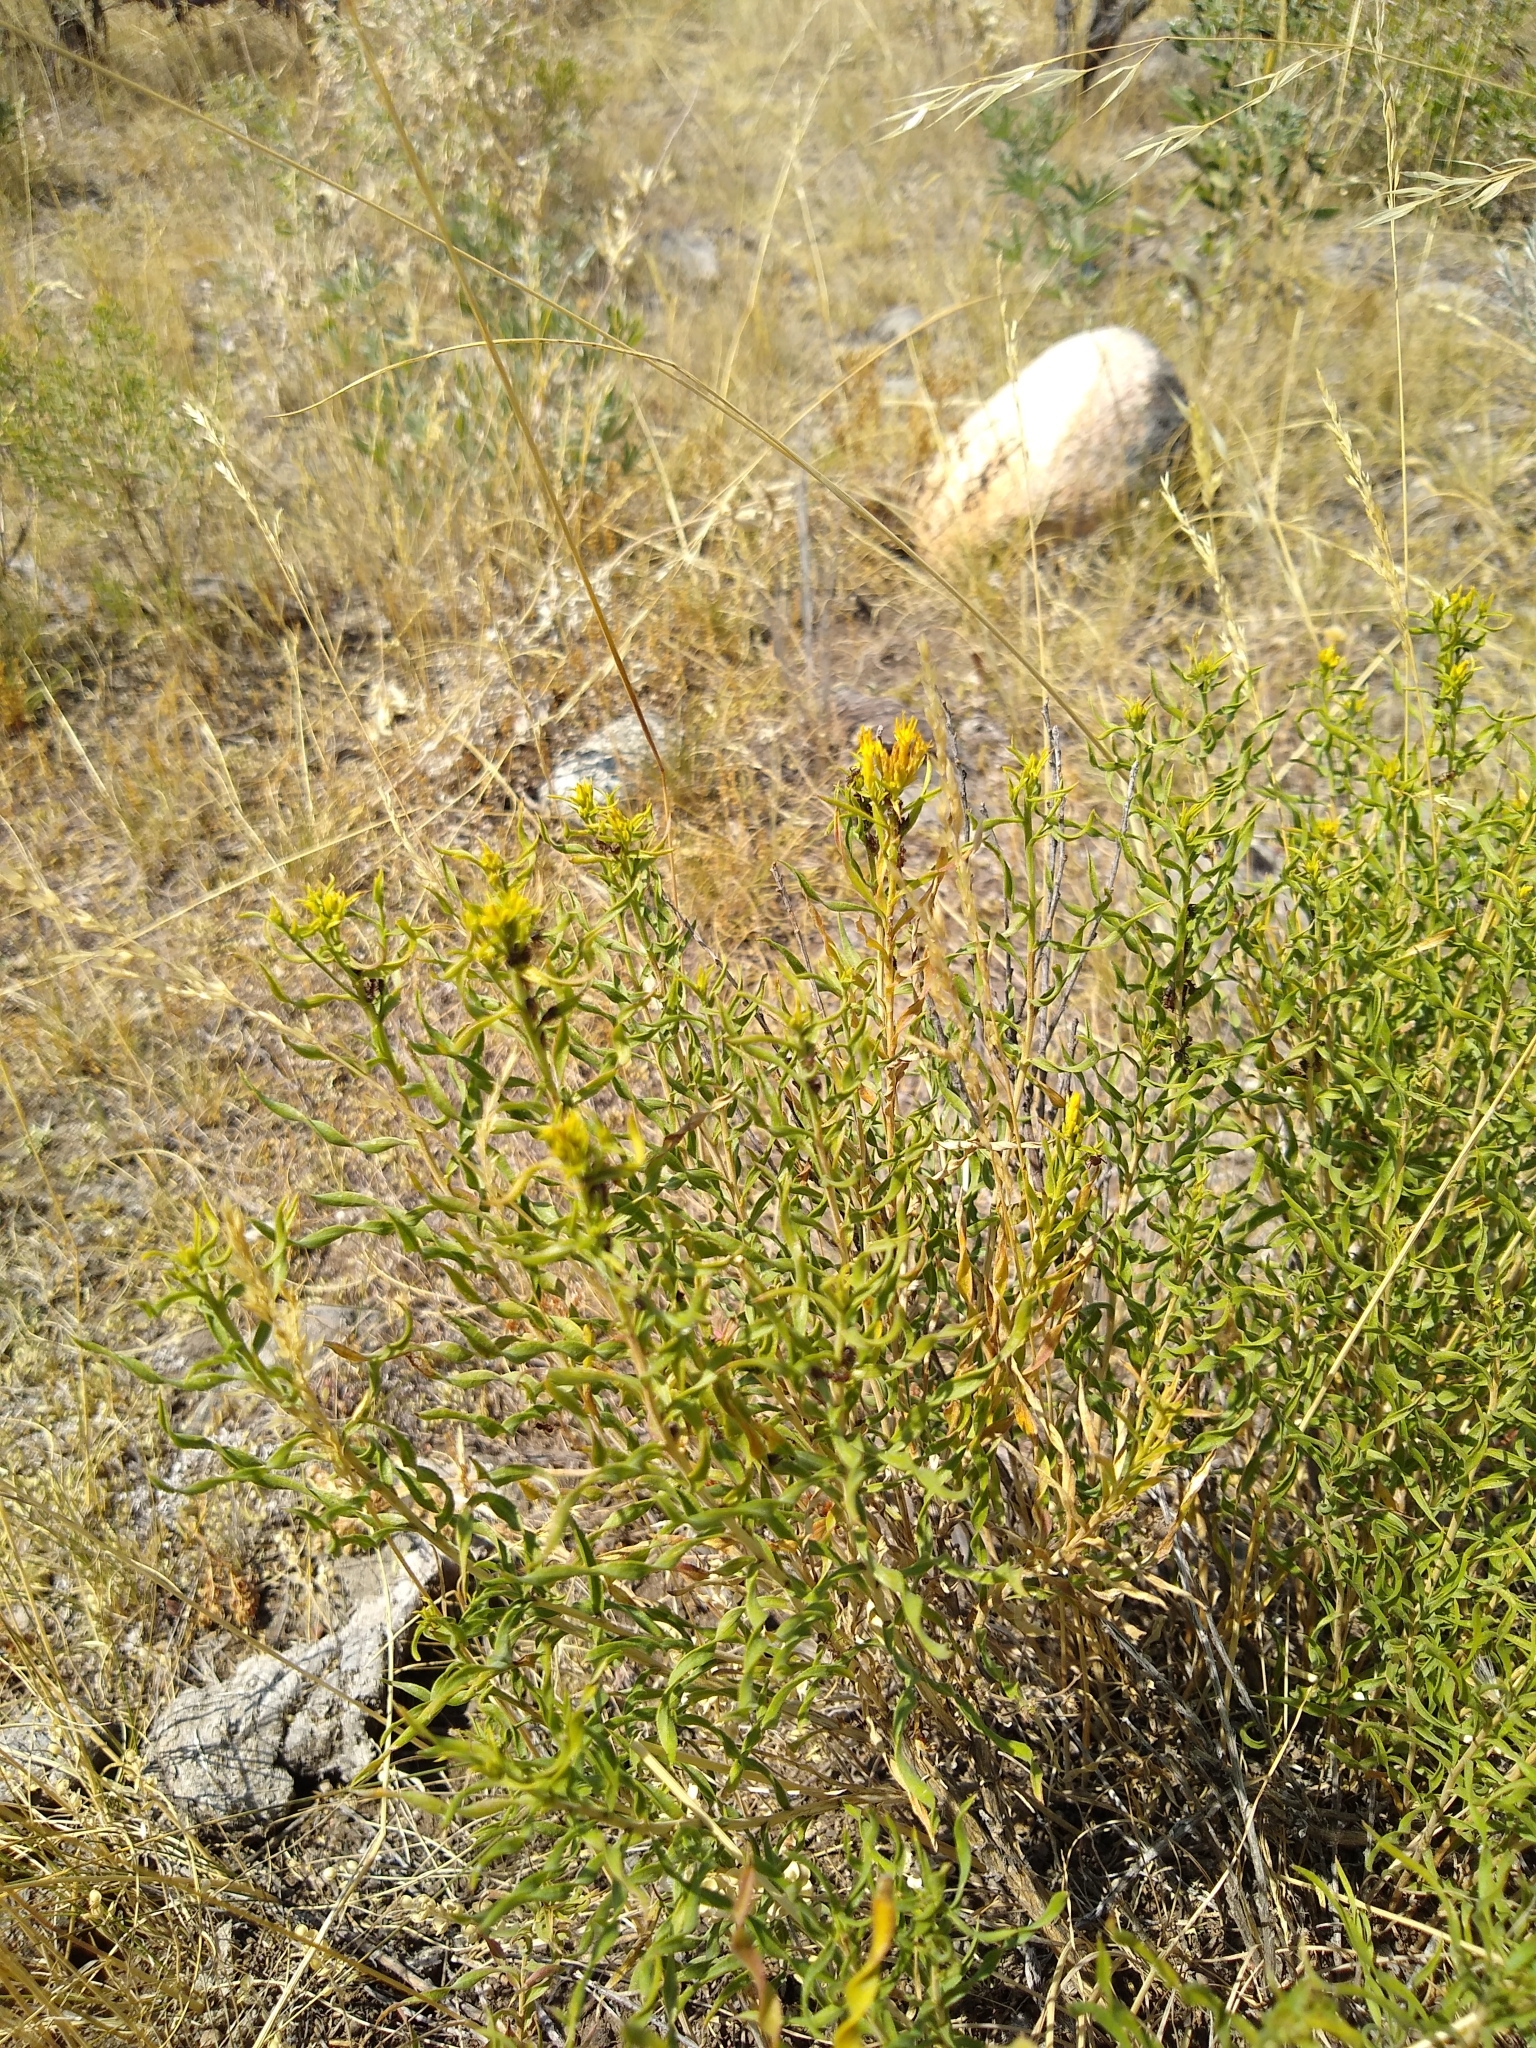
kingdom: Plantae
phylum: Tracheophyta
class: Magnoliopsida
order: Asterales
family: Asteraceae
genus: Chrysothamnus
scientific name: Chrysothamnus viscidiflorus
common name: Yellow rabbitbrush
